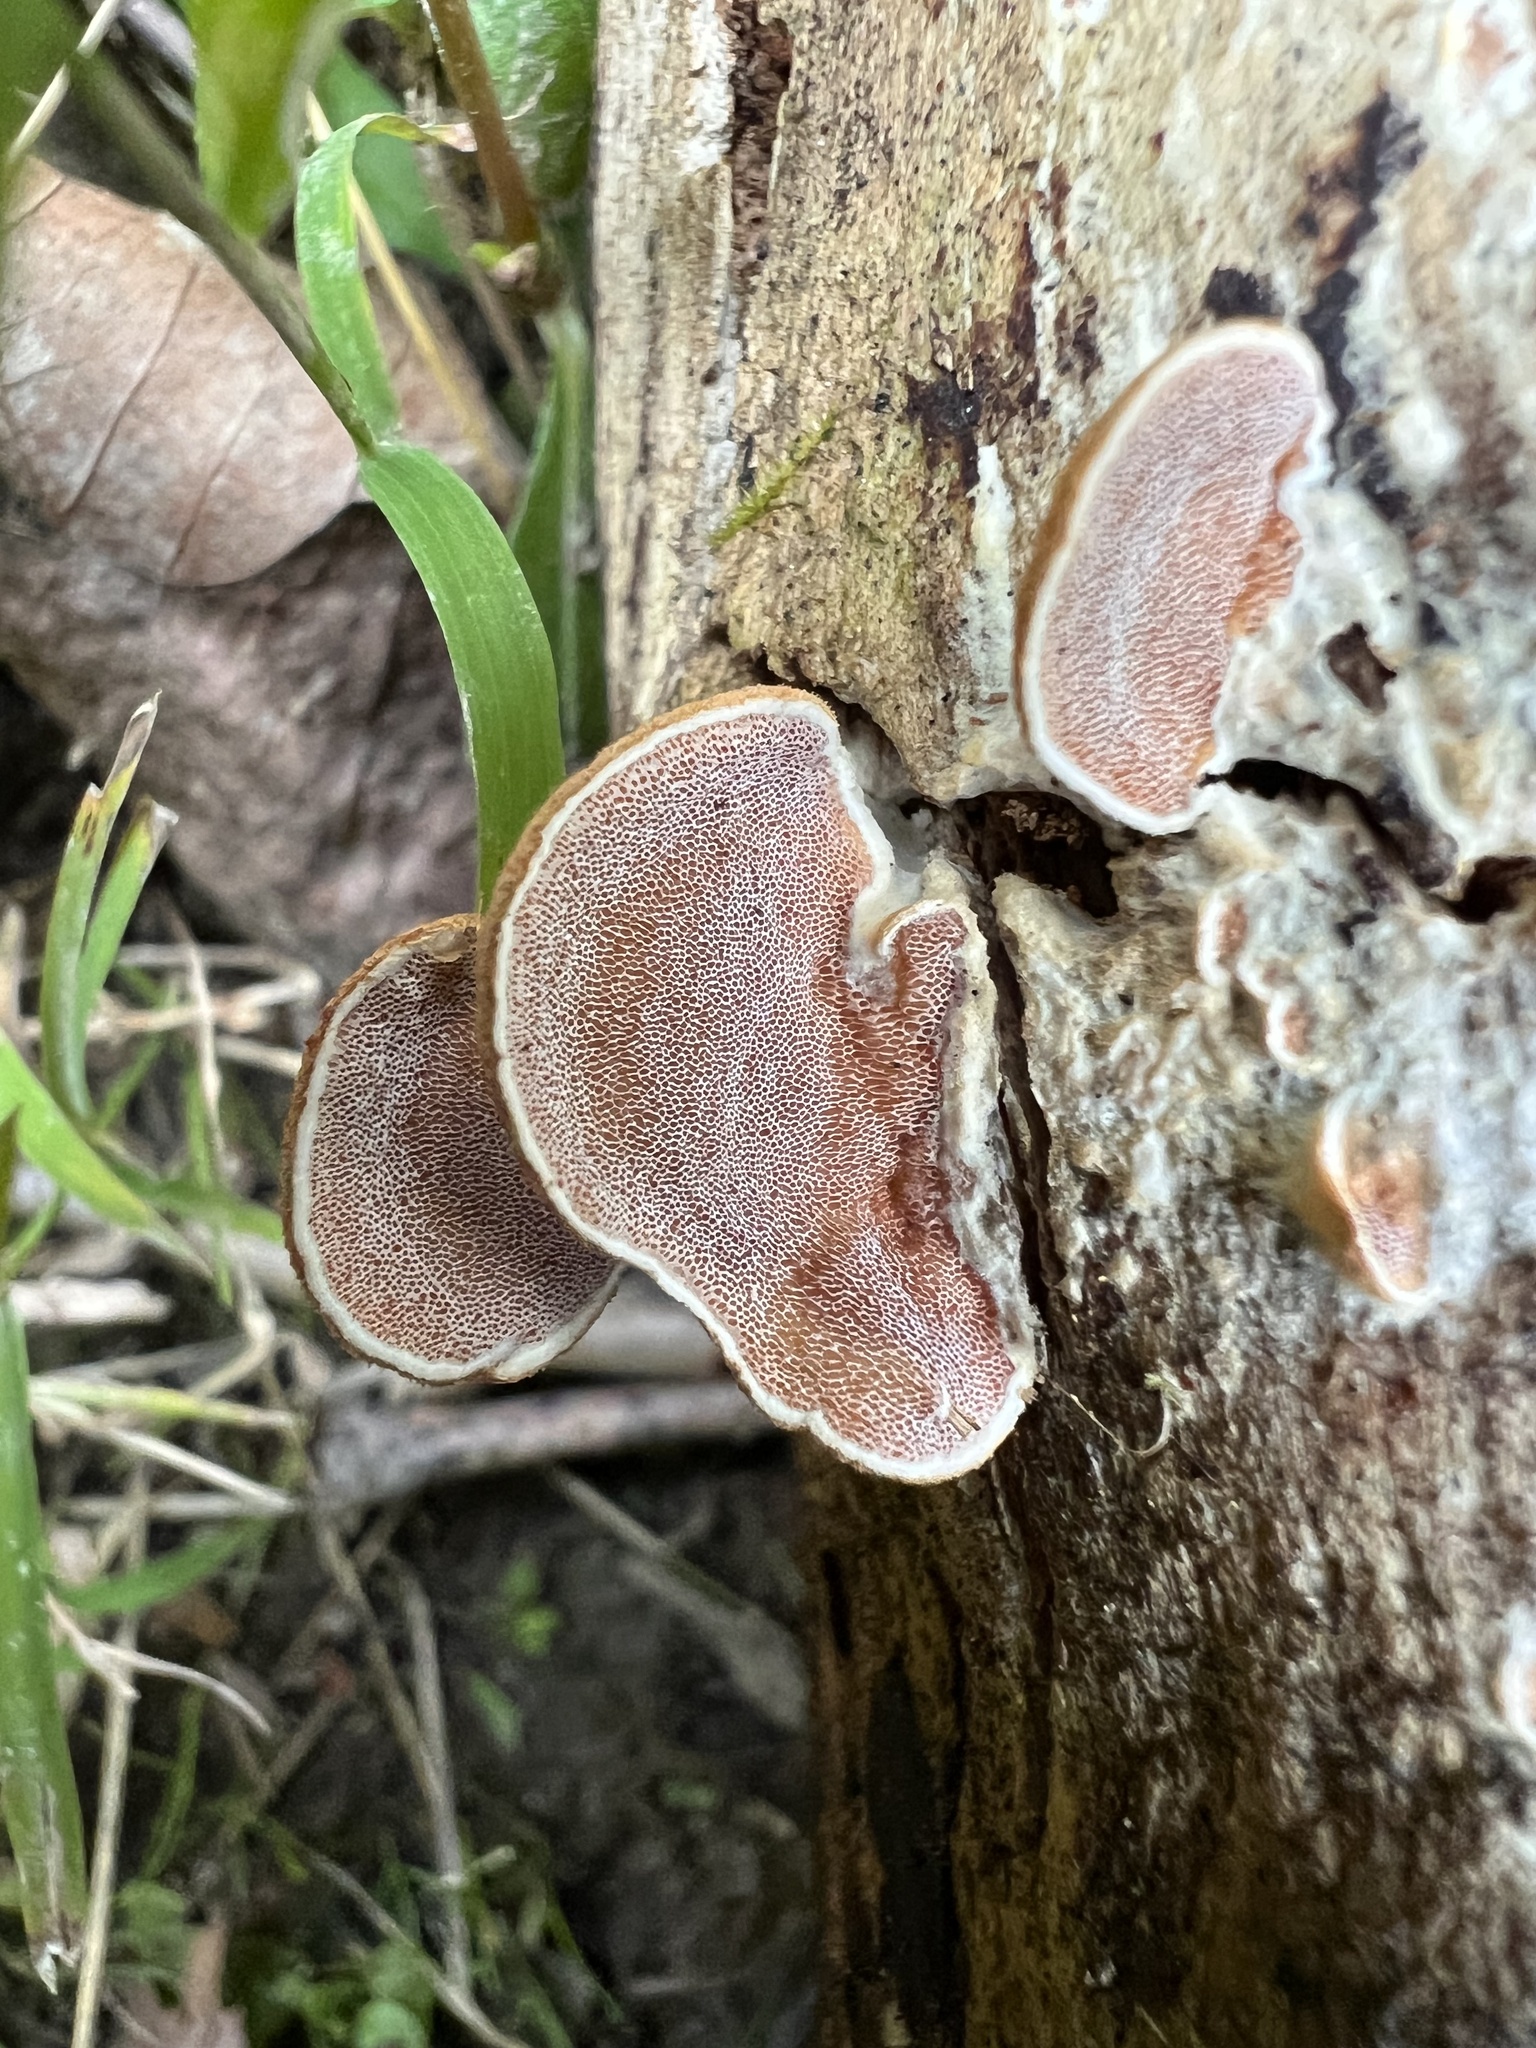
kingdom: Fungi
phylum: Basidiomycota
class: Agaricomycetes
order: Polyporales
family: Irpicaceae
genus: Vitreoporus
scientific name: Vitreoporus dichrous
